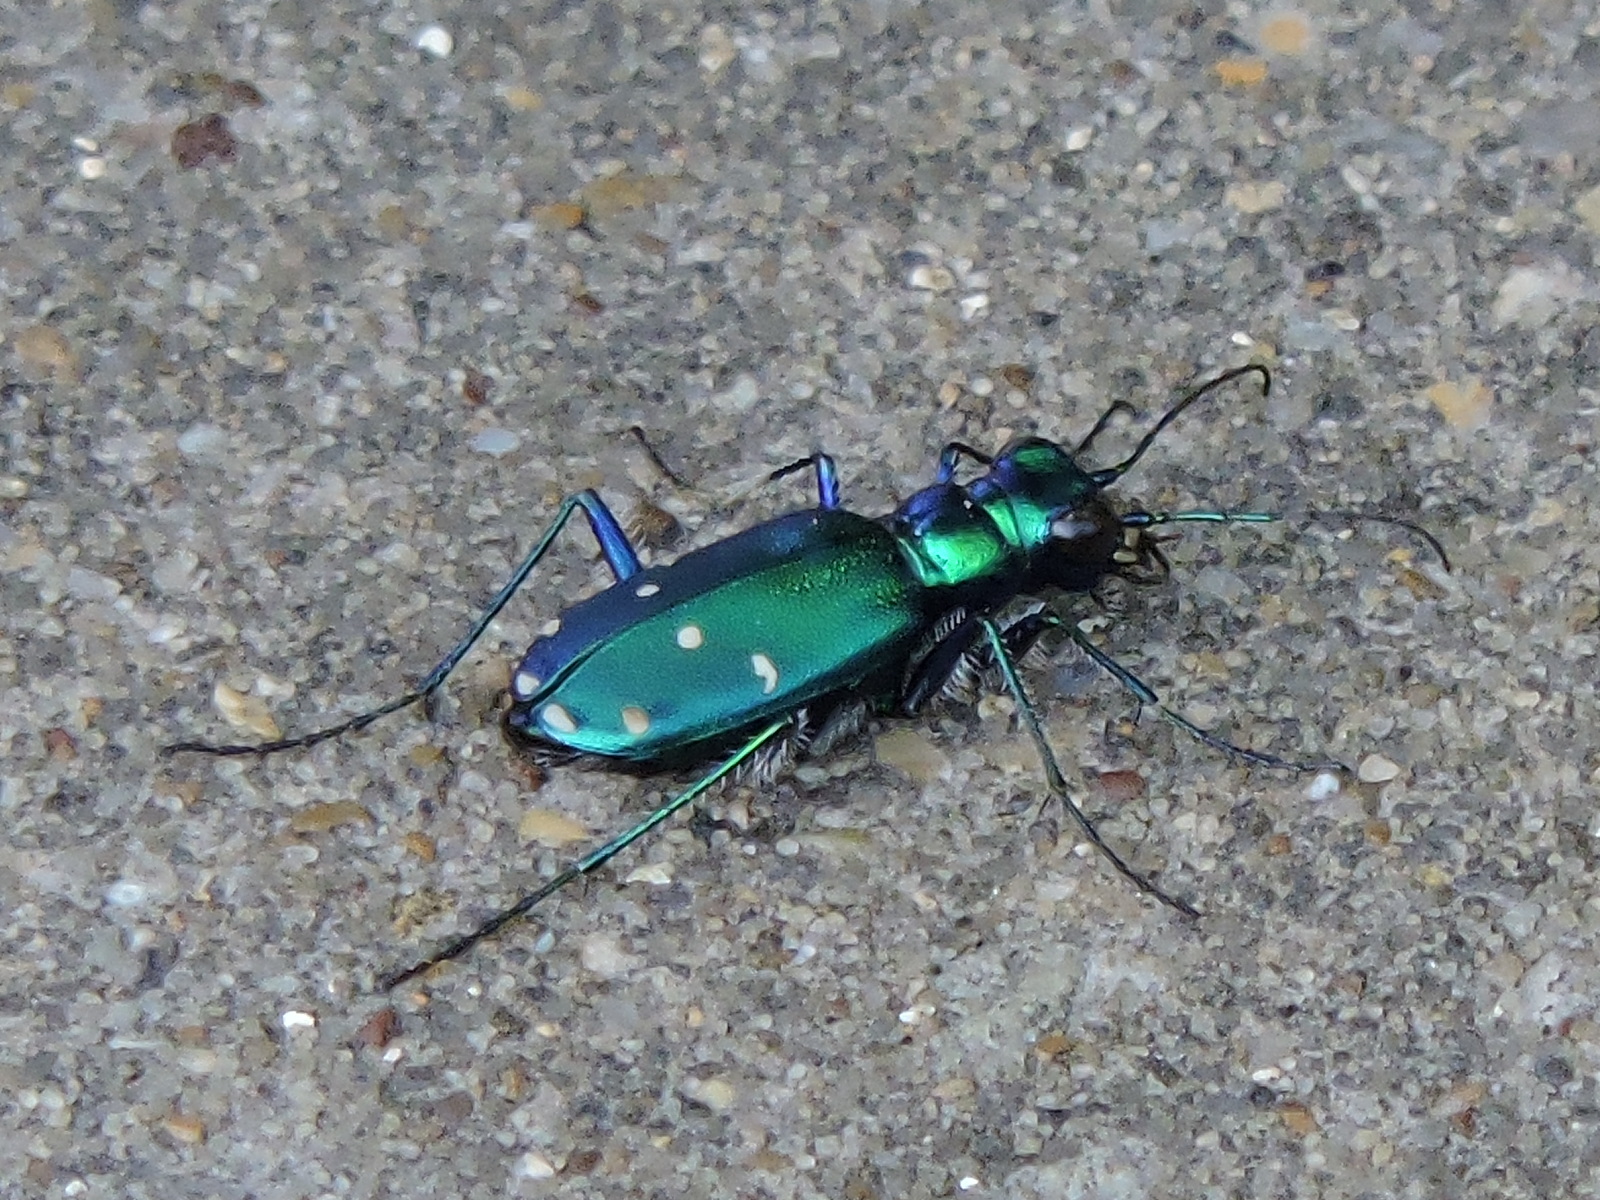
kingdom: Animalia
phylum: Arthropoda
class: Insecta
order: Coleoptera
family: Carabidae
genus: Cicindela
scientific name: Cicindela sexguttata
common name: Six-spotted tiger beetle
